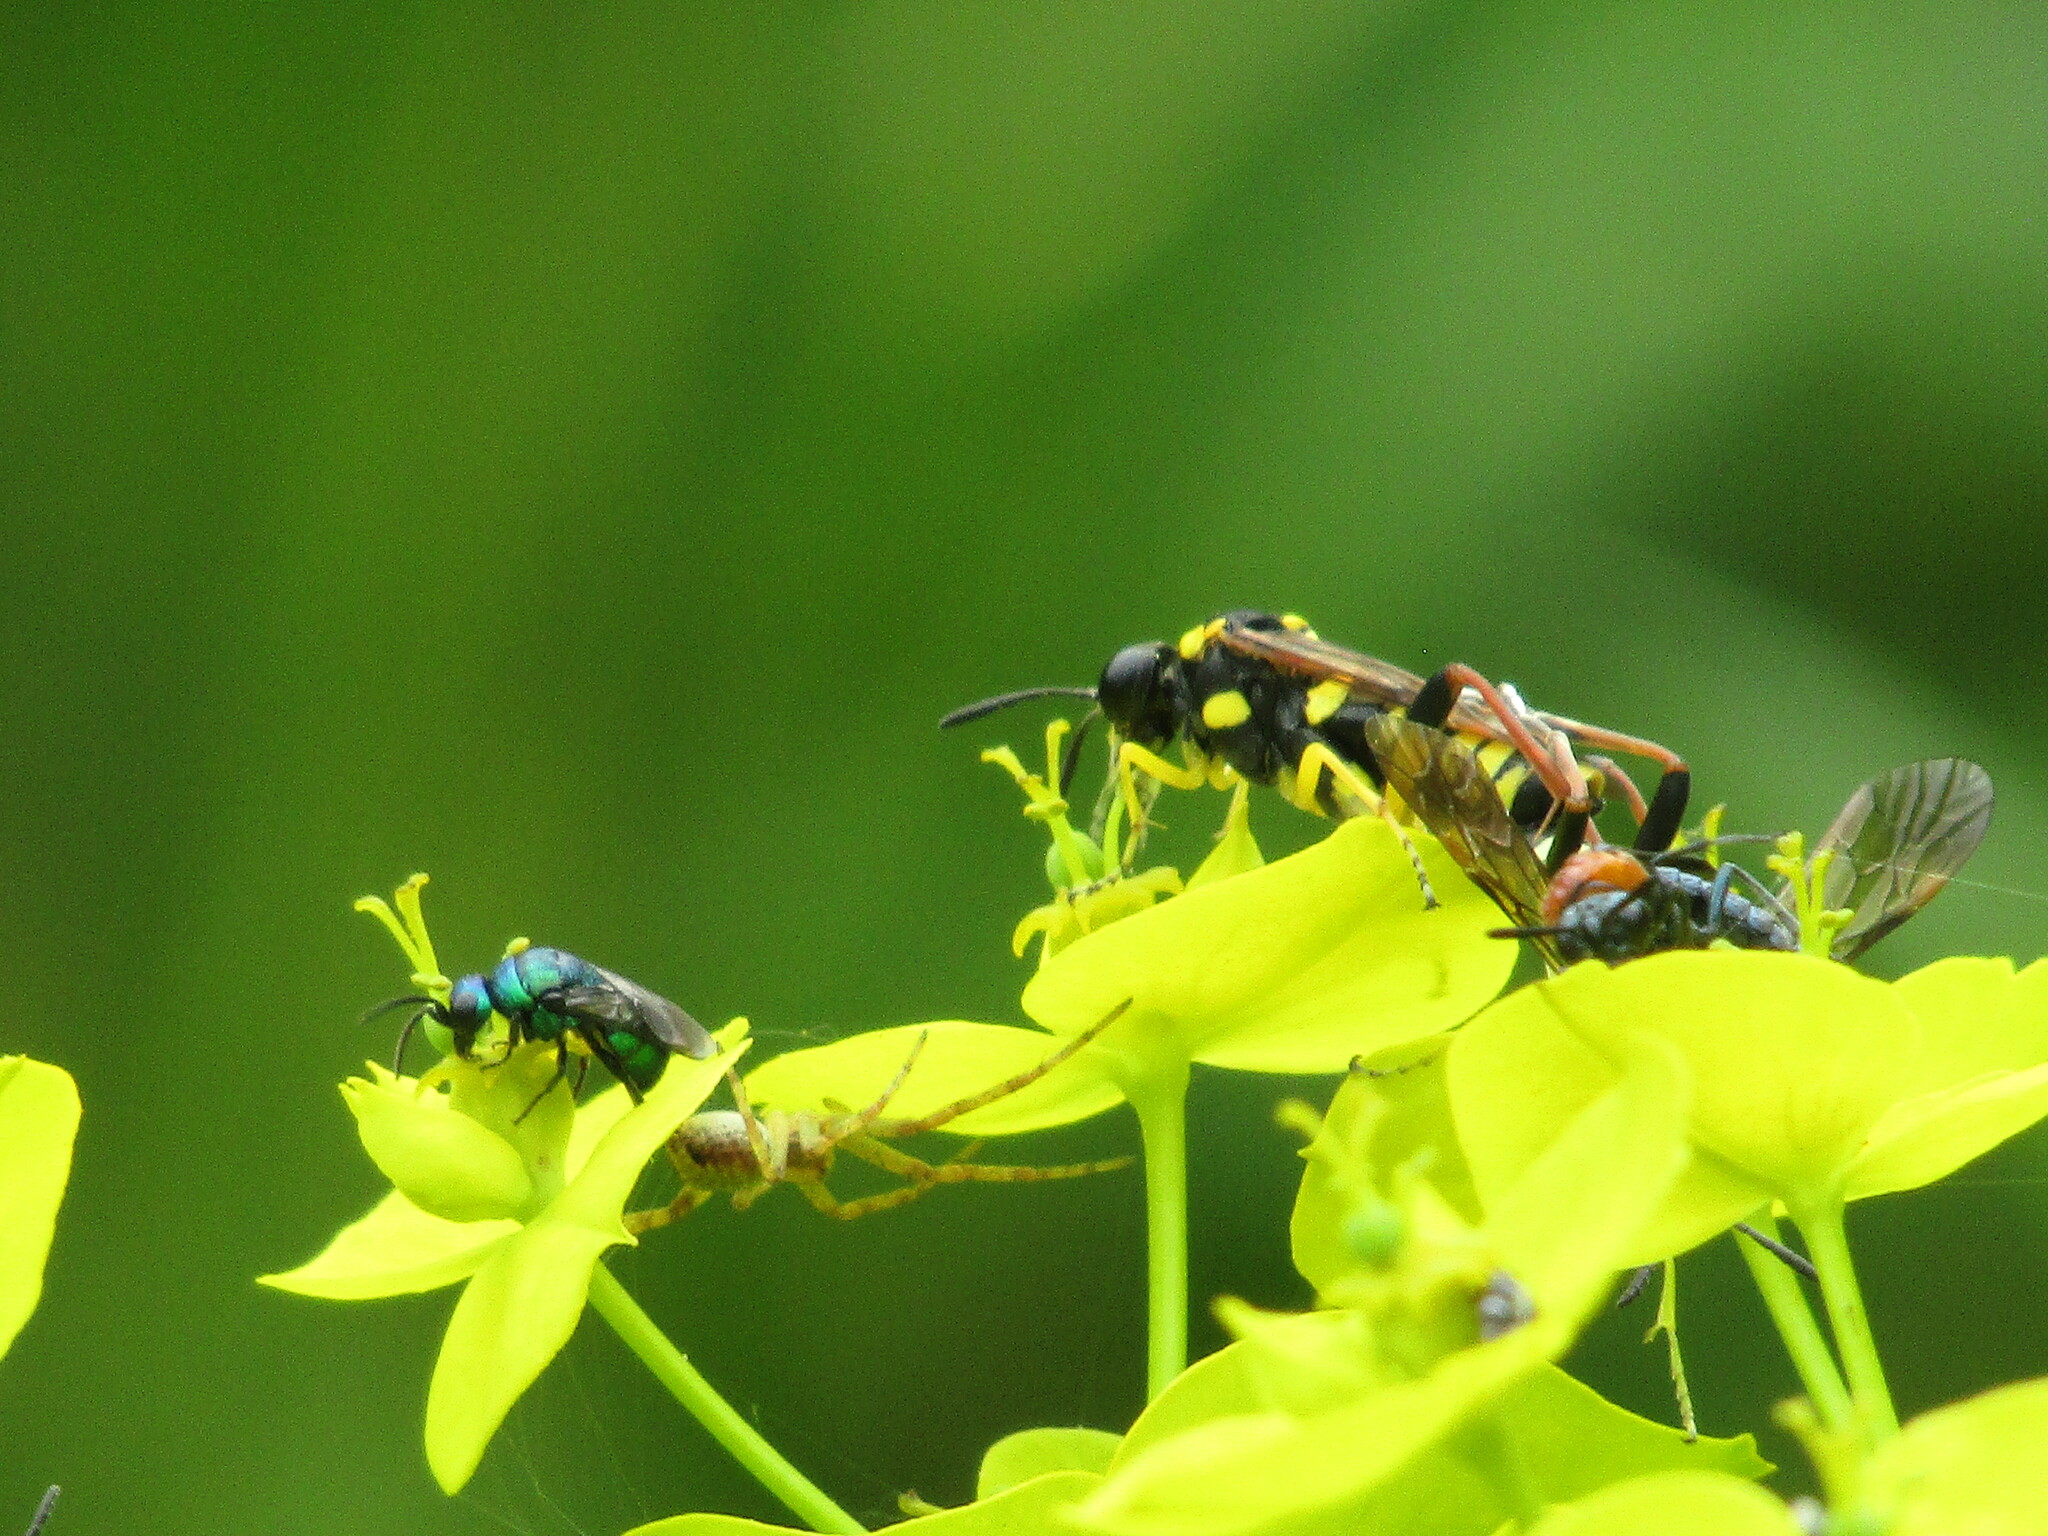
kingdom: Animalia
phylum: Arthropoda
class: Insecta
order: Hymenoptera
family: Argidae
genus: Arge
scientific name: Arge pleuritica
